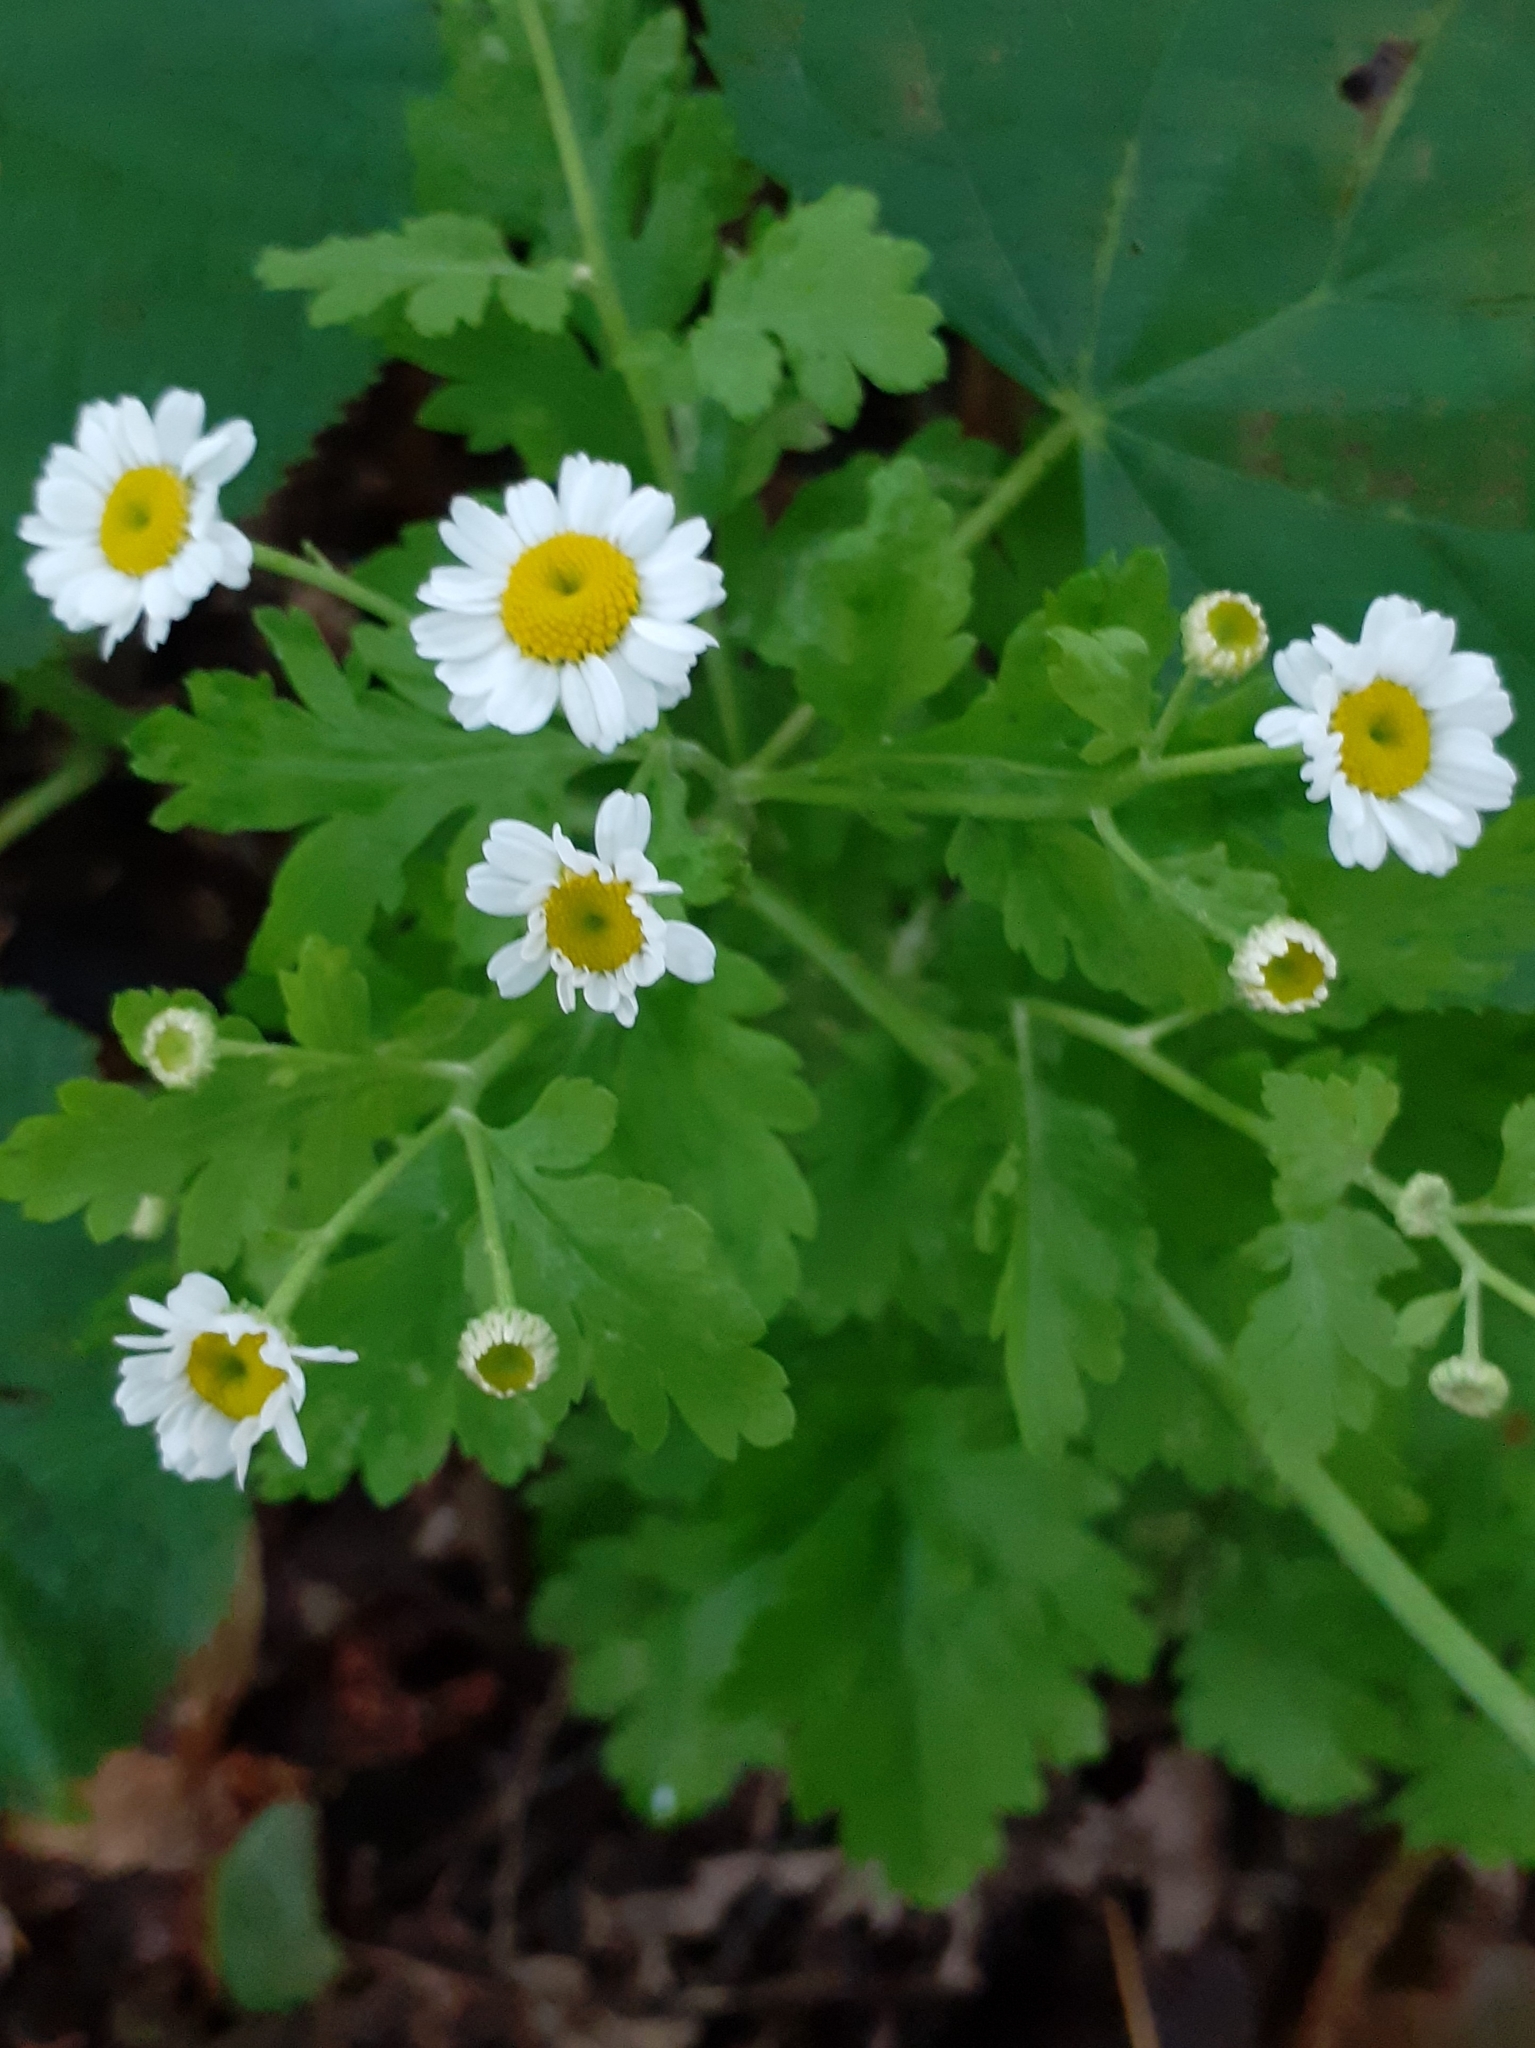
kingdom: Plantae
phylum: Tracheophyta
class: Magnoliopsida
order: Asterales
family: Asteraceae
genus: Tanacetum
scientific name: Tanacetum parthenium
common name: Feverfew
